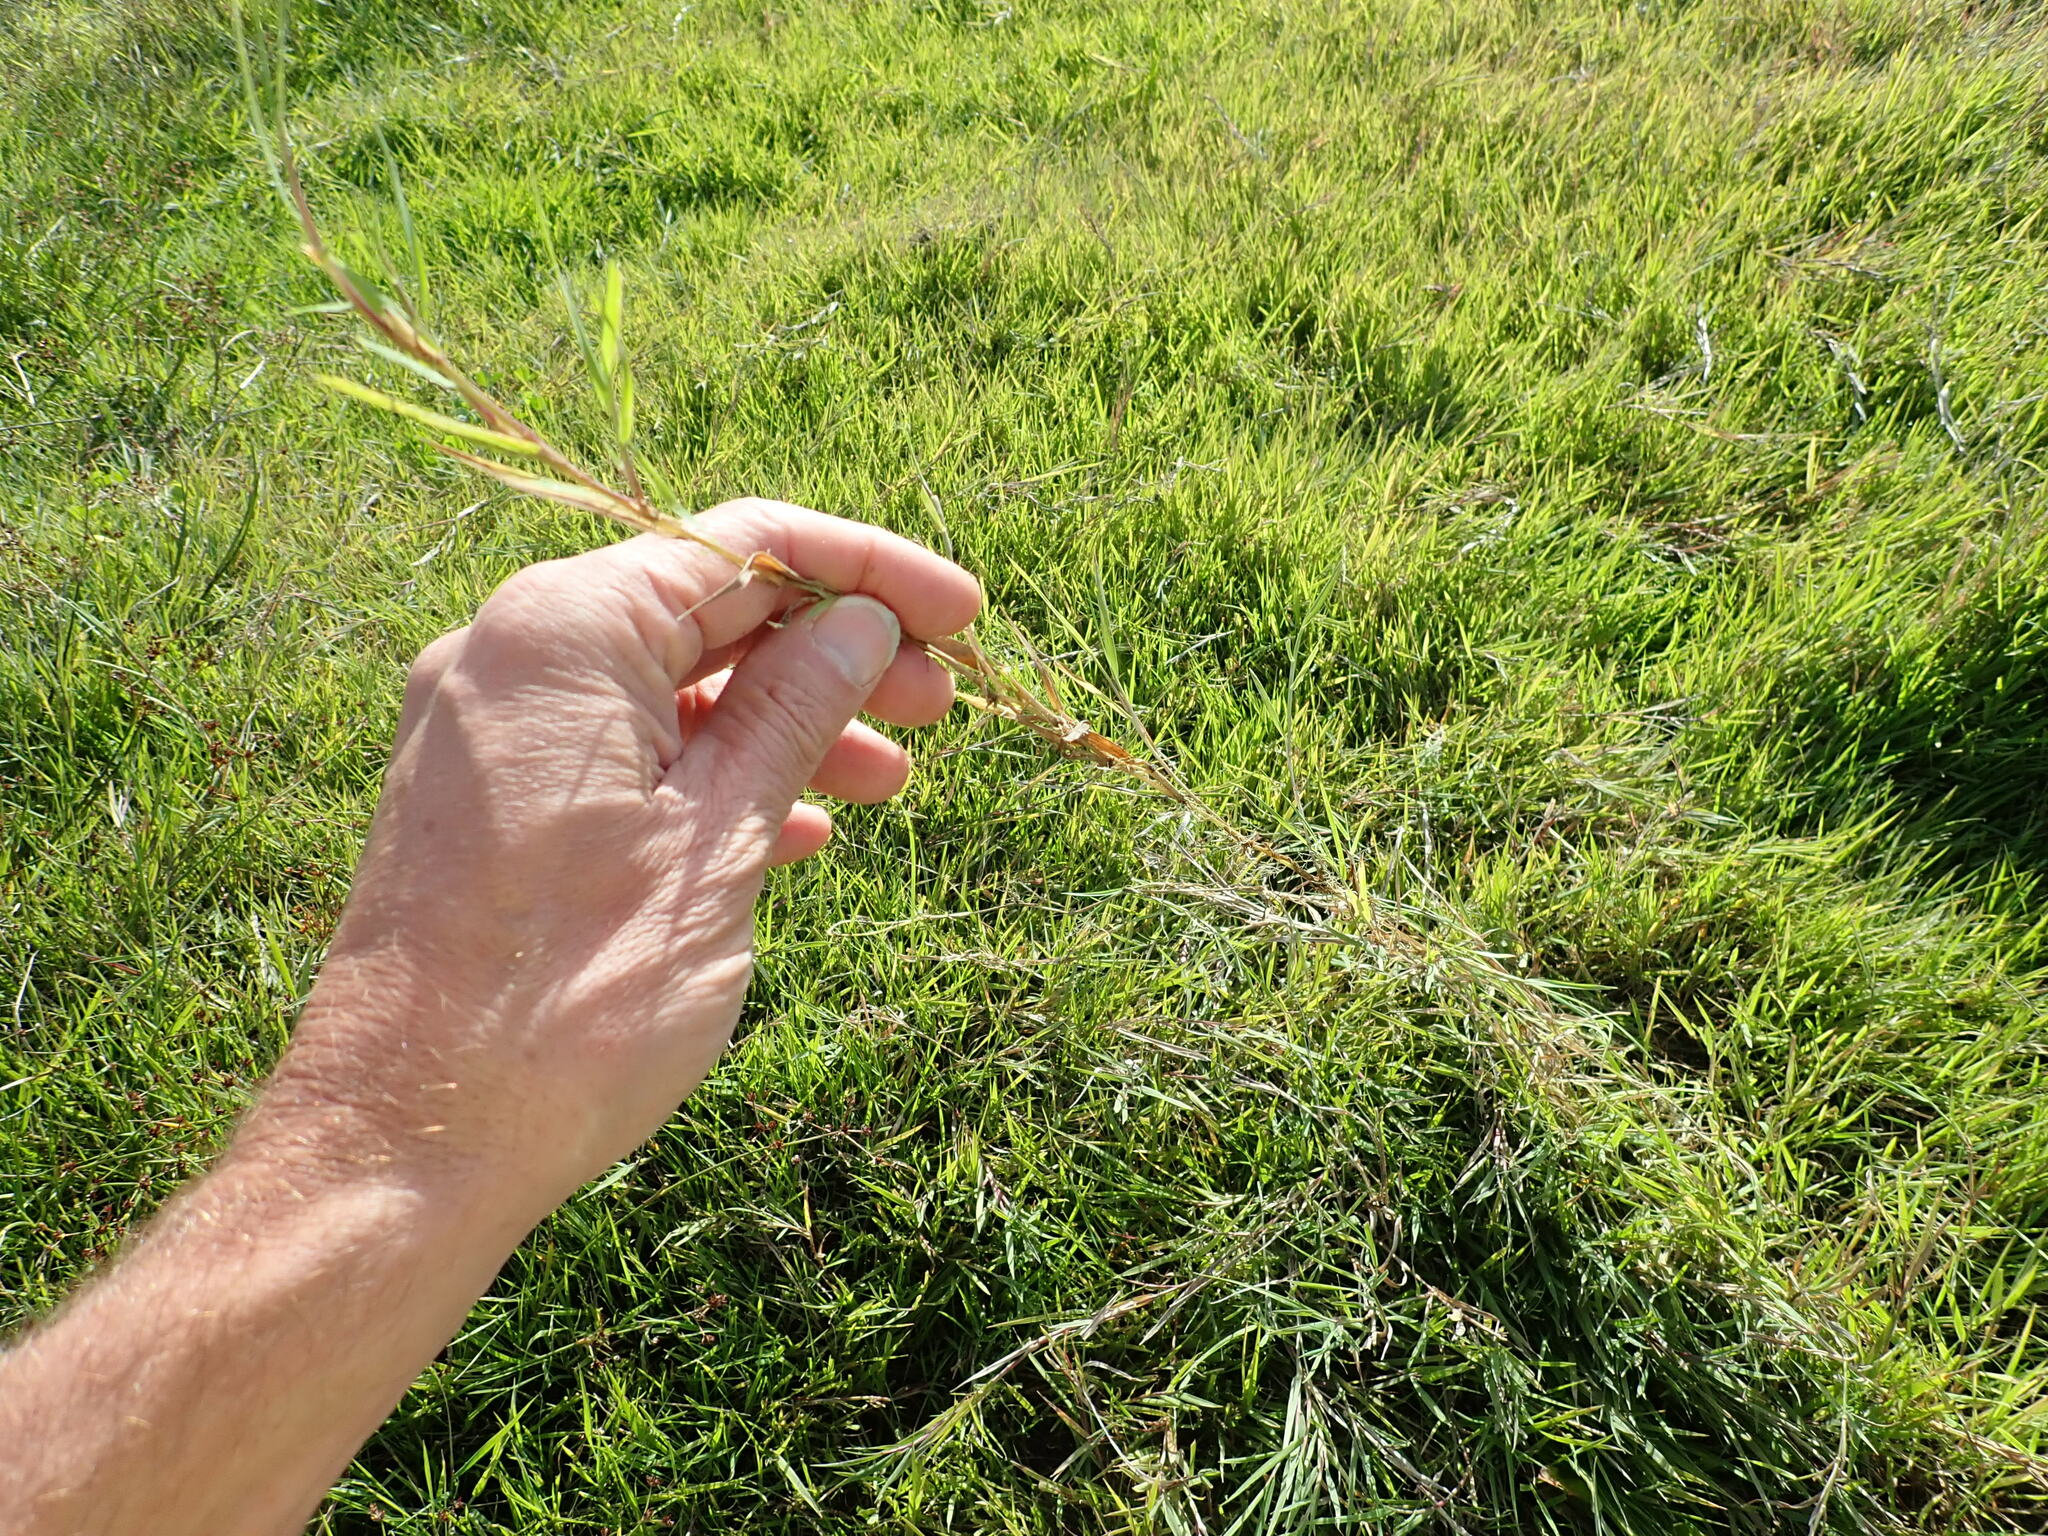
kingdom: Plantae
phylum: Tracheophyta
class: Liliopsida
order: Poales
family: Poaceae
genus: Agrostis
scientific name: Agrostis stolonifera
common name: Creeping bentgrass
